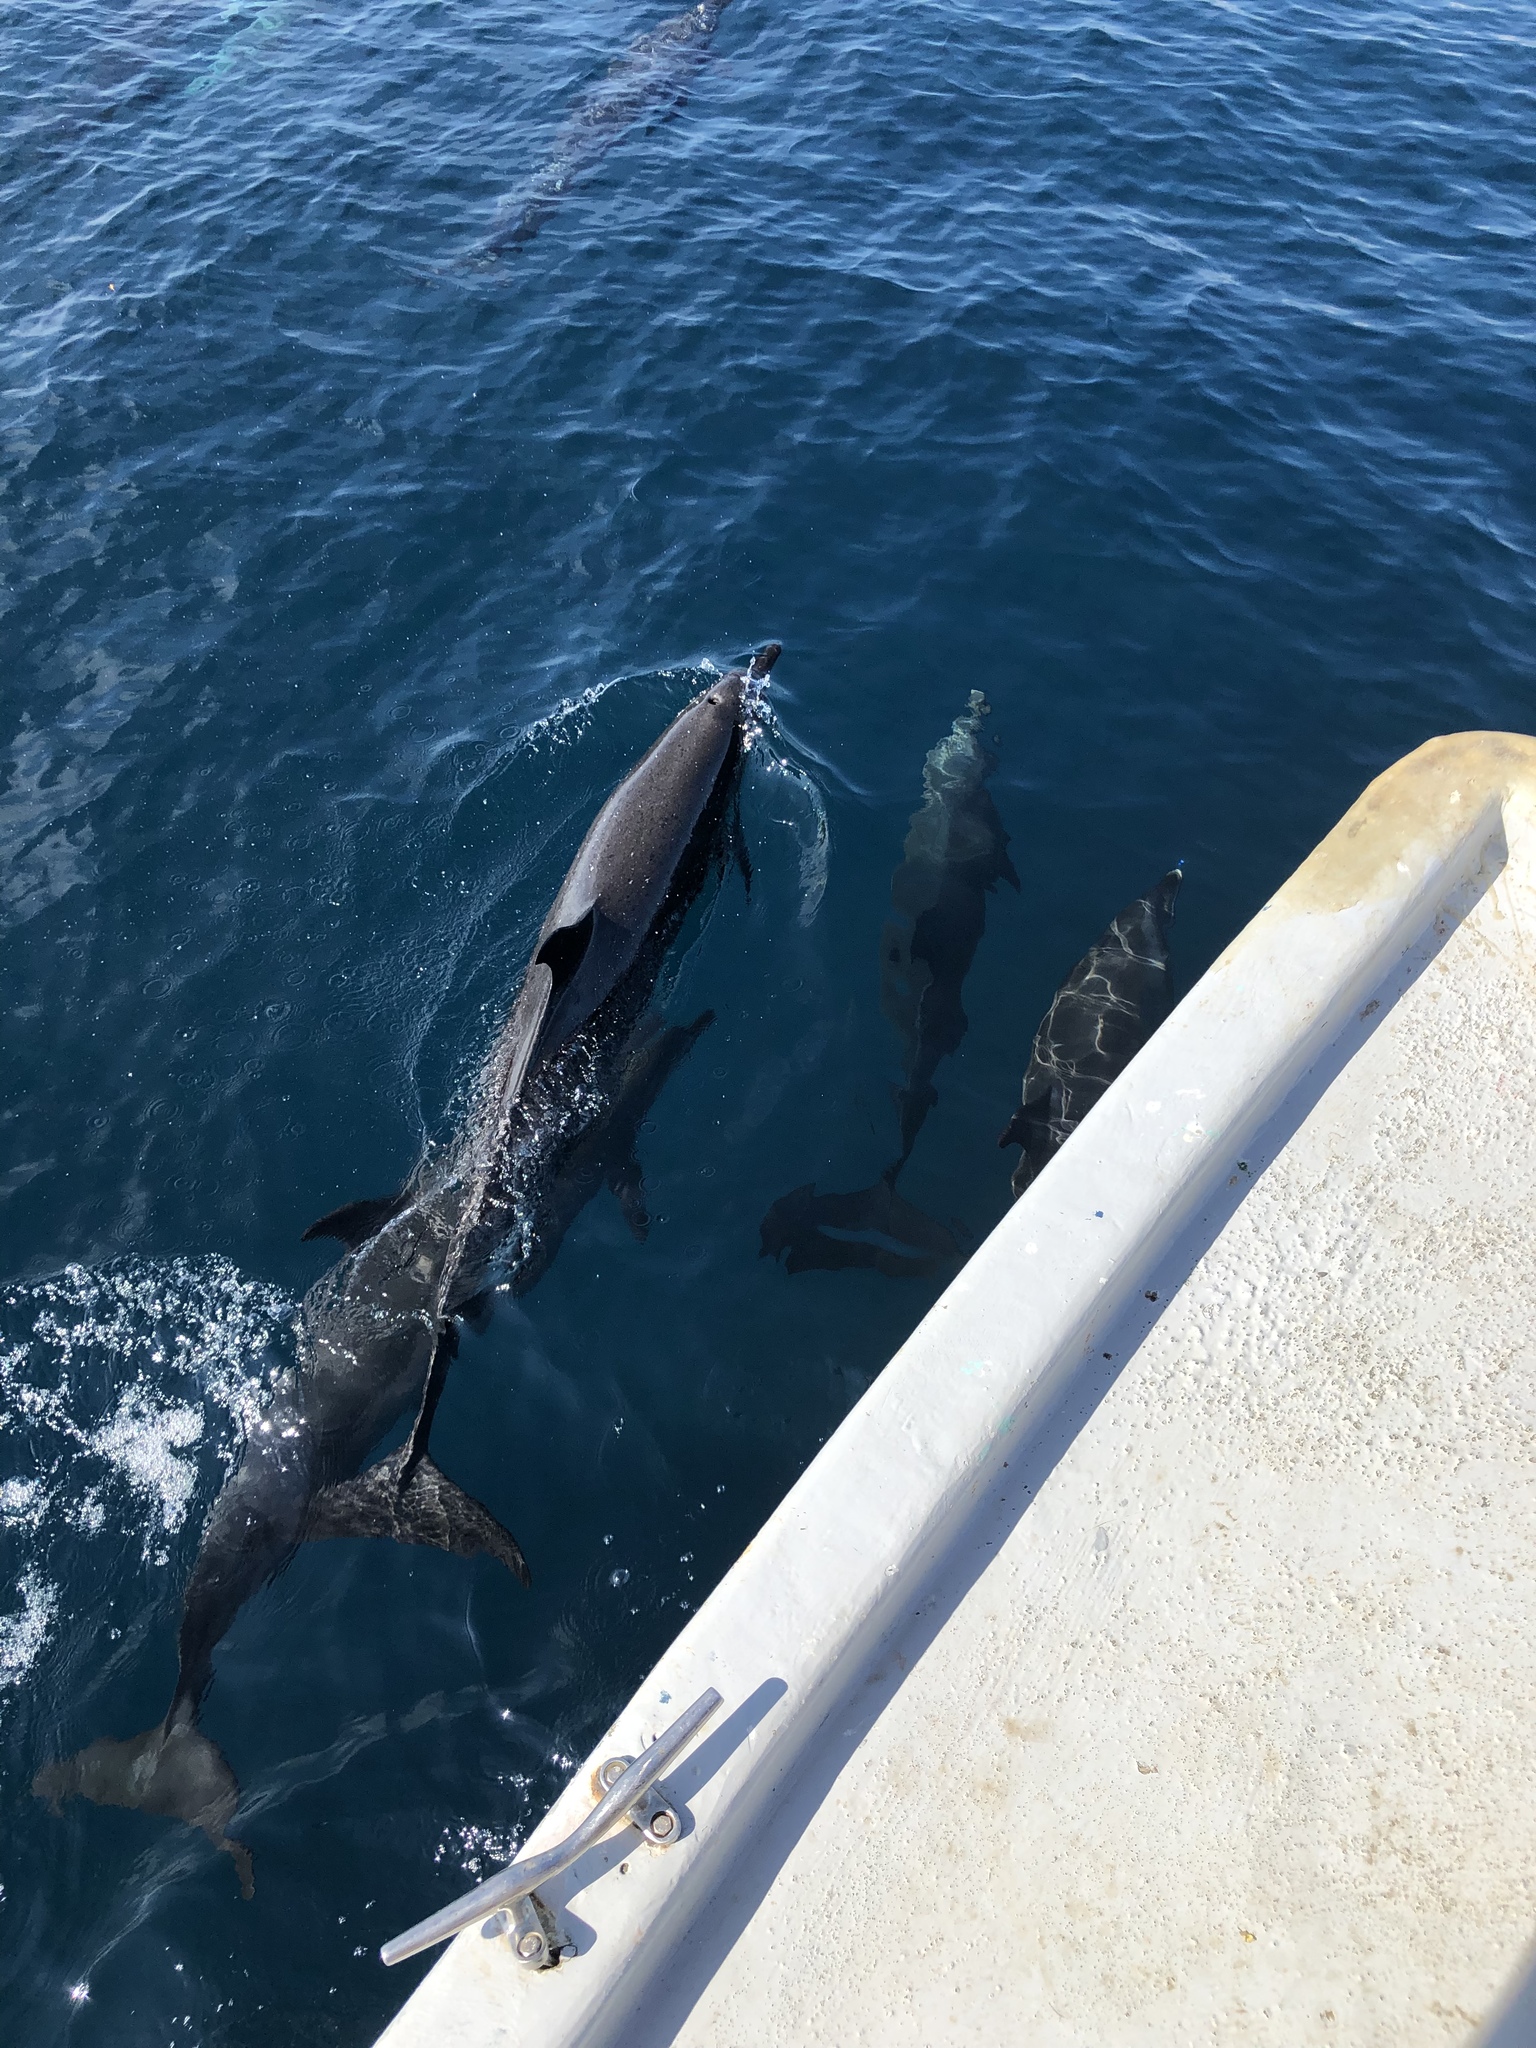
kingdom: Animalia
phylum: Chordata
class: Mammalia
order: Cetacea
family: Delphinidae
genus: Stenella
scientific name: Stenella attenuata
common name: Pantropical spotted dolphin
